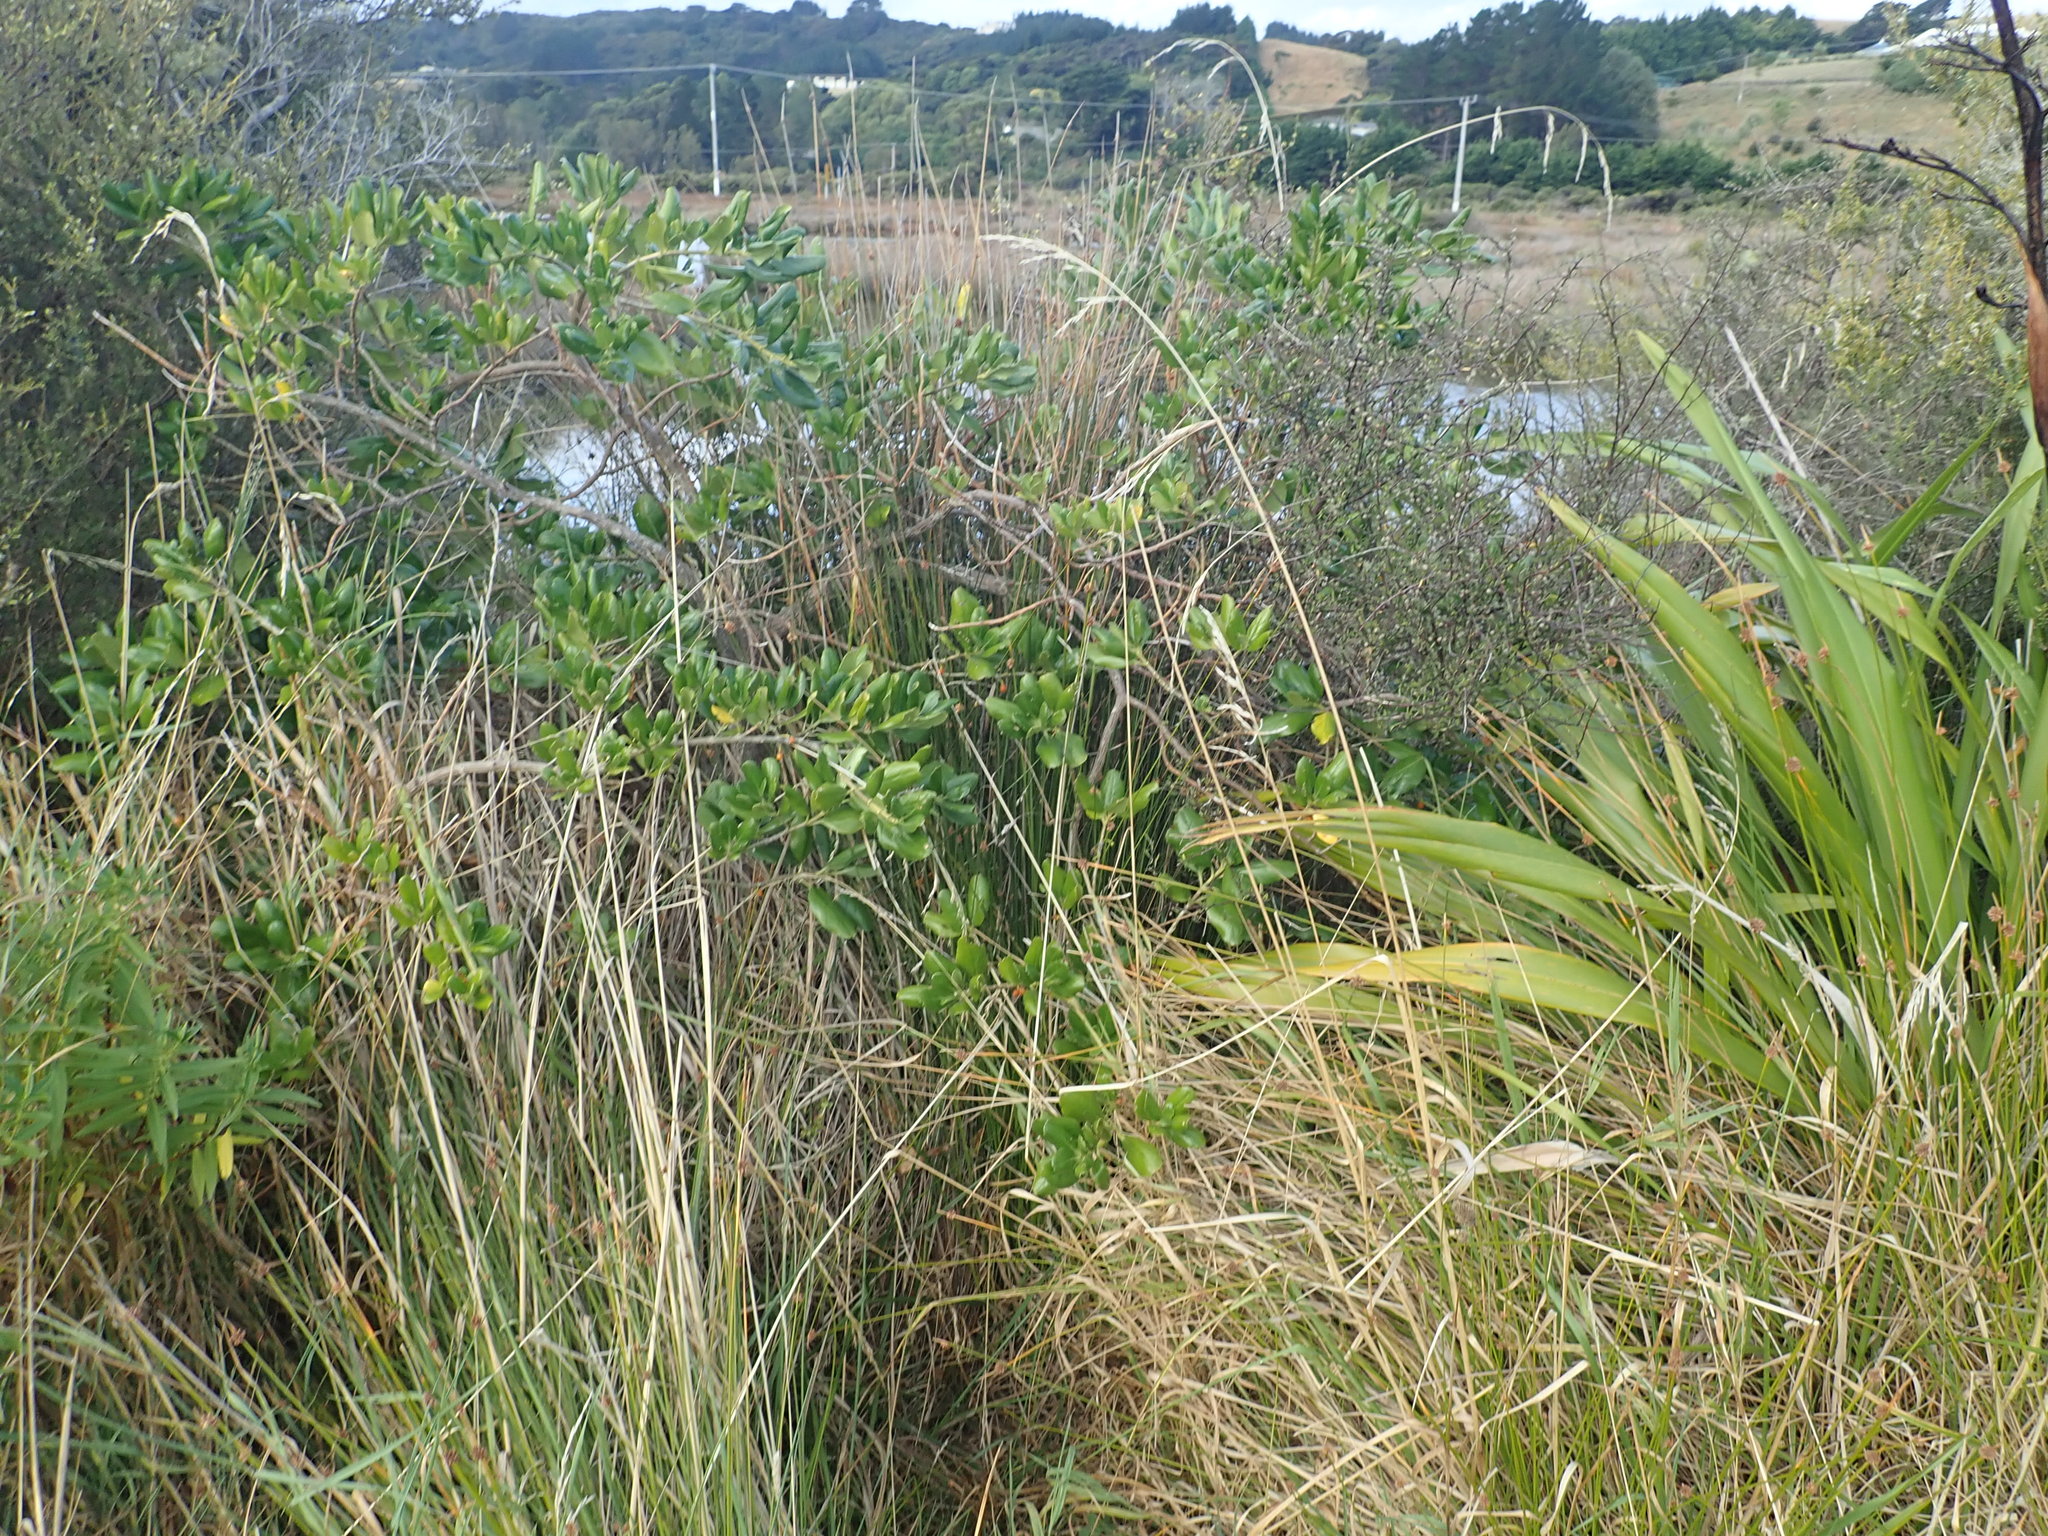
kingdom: Plantae
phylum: Tracheophyta
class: Magnoliopsida
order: Gentianales
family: Rubiaceae
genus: Coprosma
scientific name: Coprosma repens
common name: Tree bedstraw
